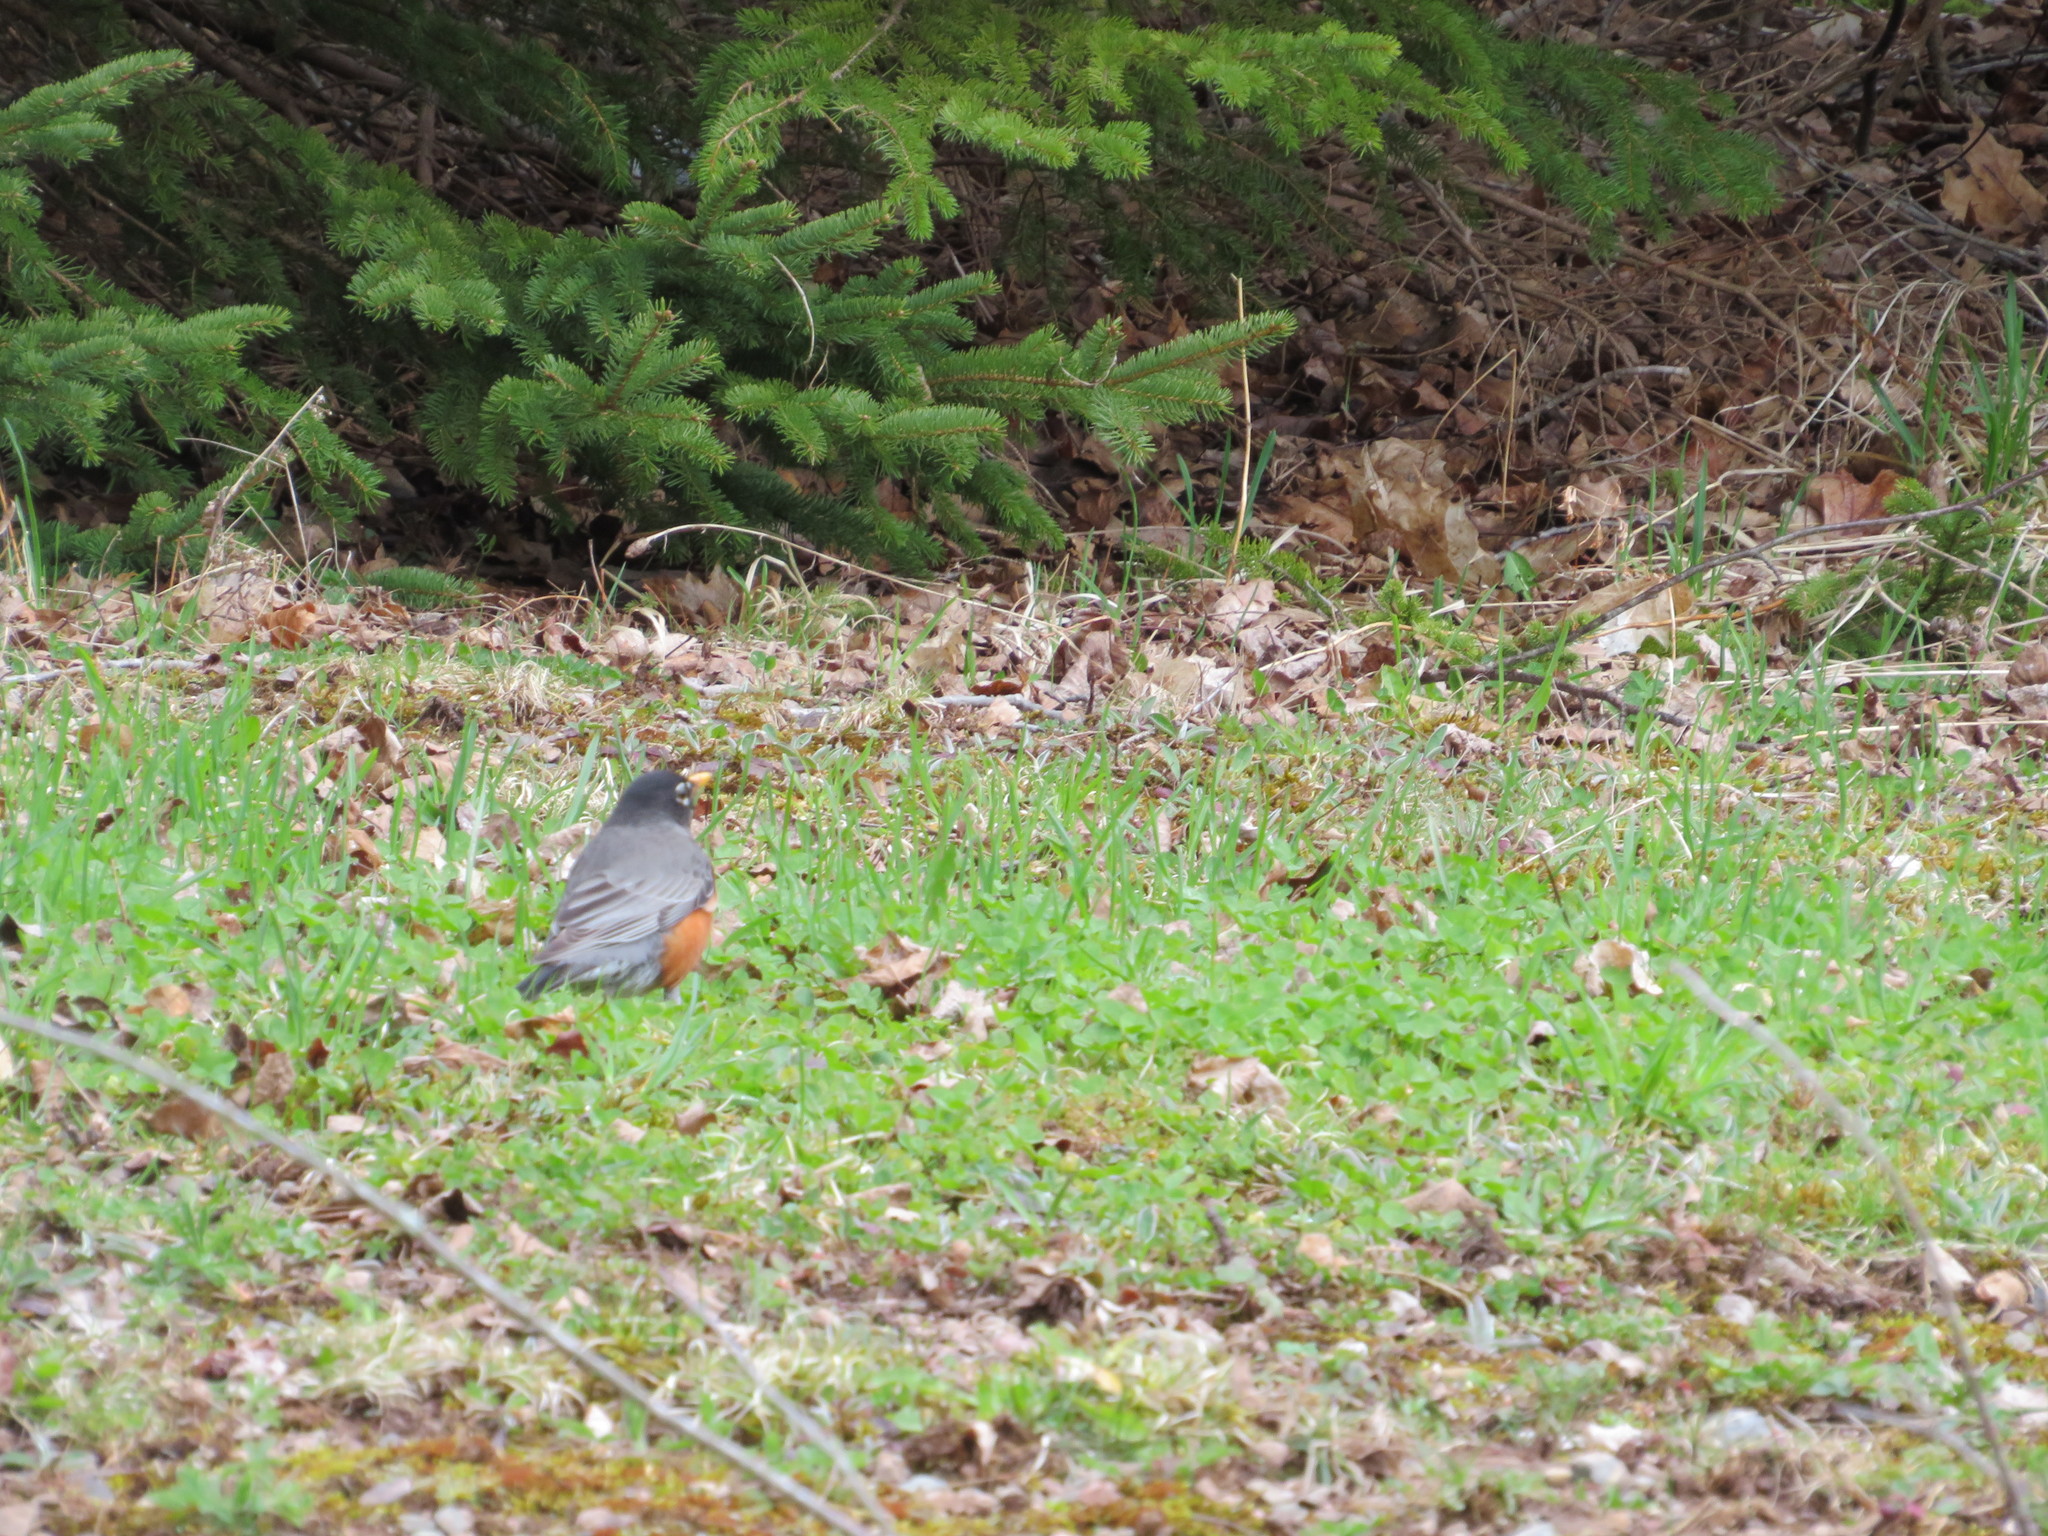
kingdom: Animalia
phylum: Chordata
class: Aves
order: Passeriformes
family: Turdidae
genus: Turdus
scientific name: Turdus migratorius
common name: American robin
